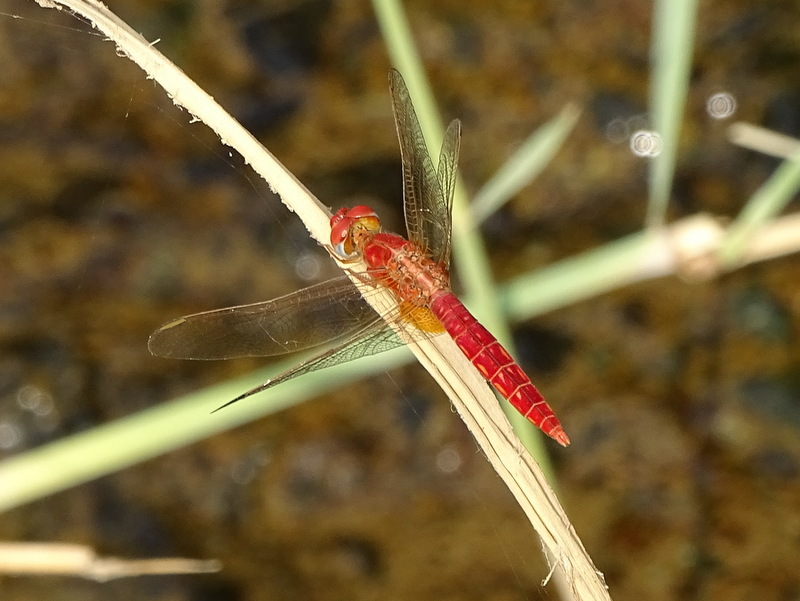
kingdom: Animalia
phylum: Arthropoda
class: Insecta
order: Odonata
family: Libellulidae
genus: Crocothemis
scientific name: Crocothemis erythraea
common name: Scarlet dragonfly
